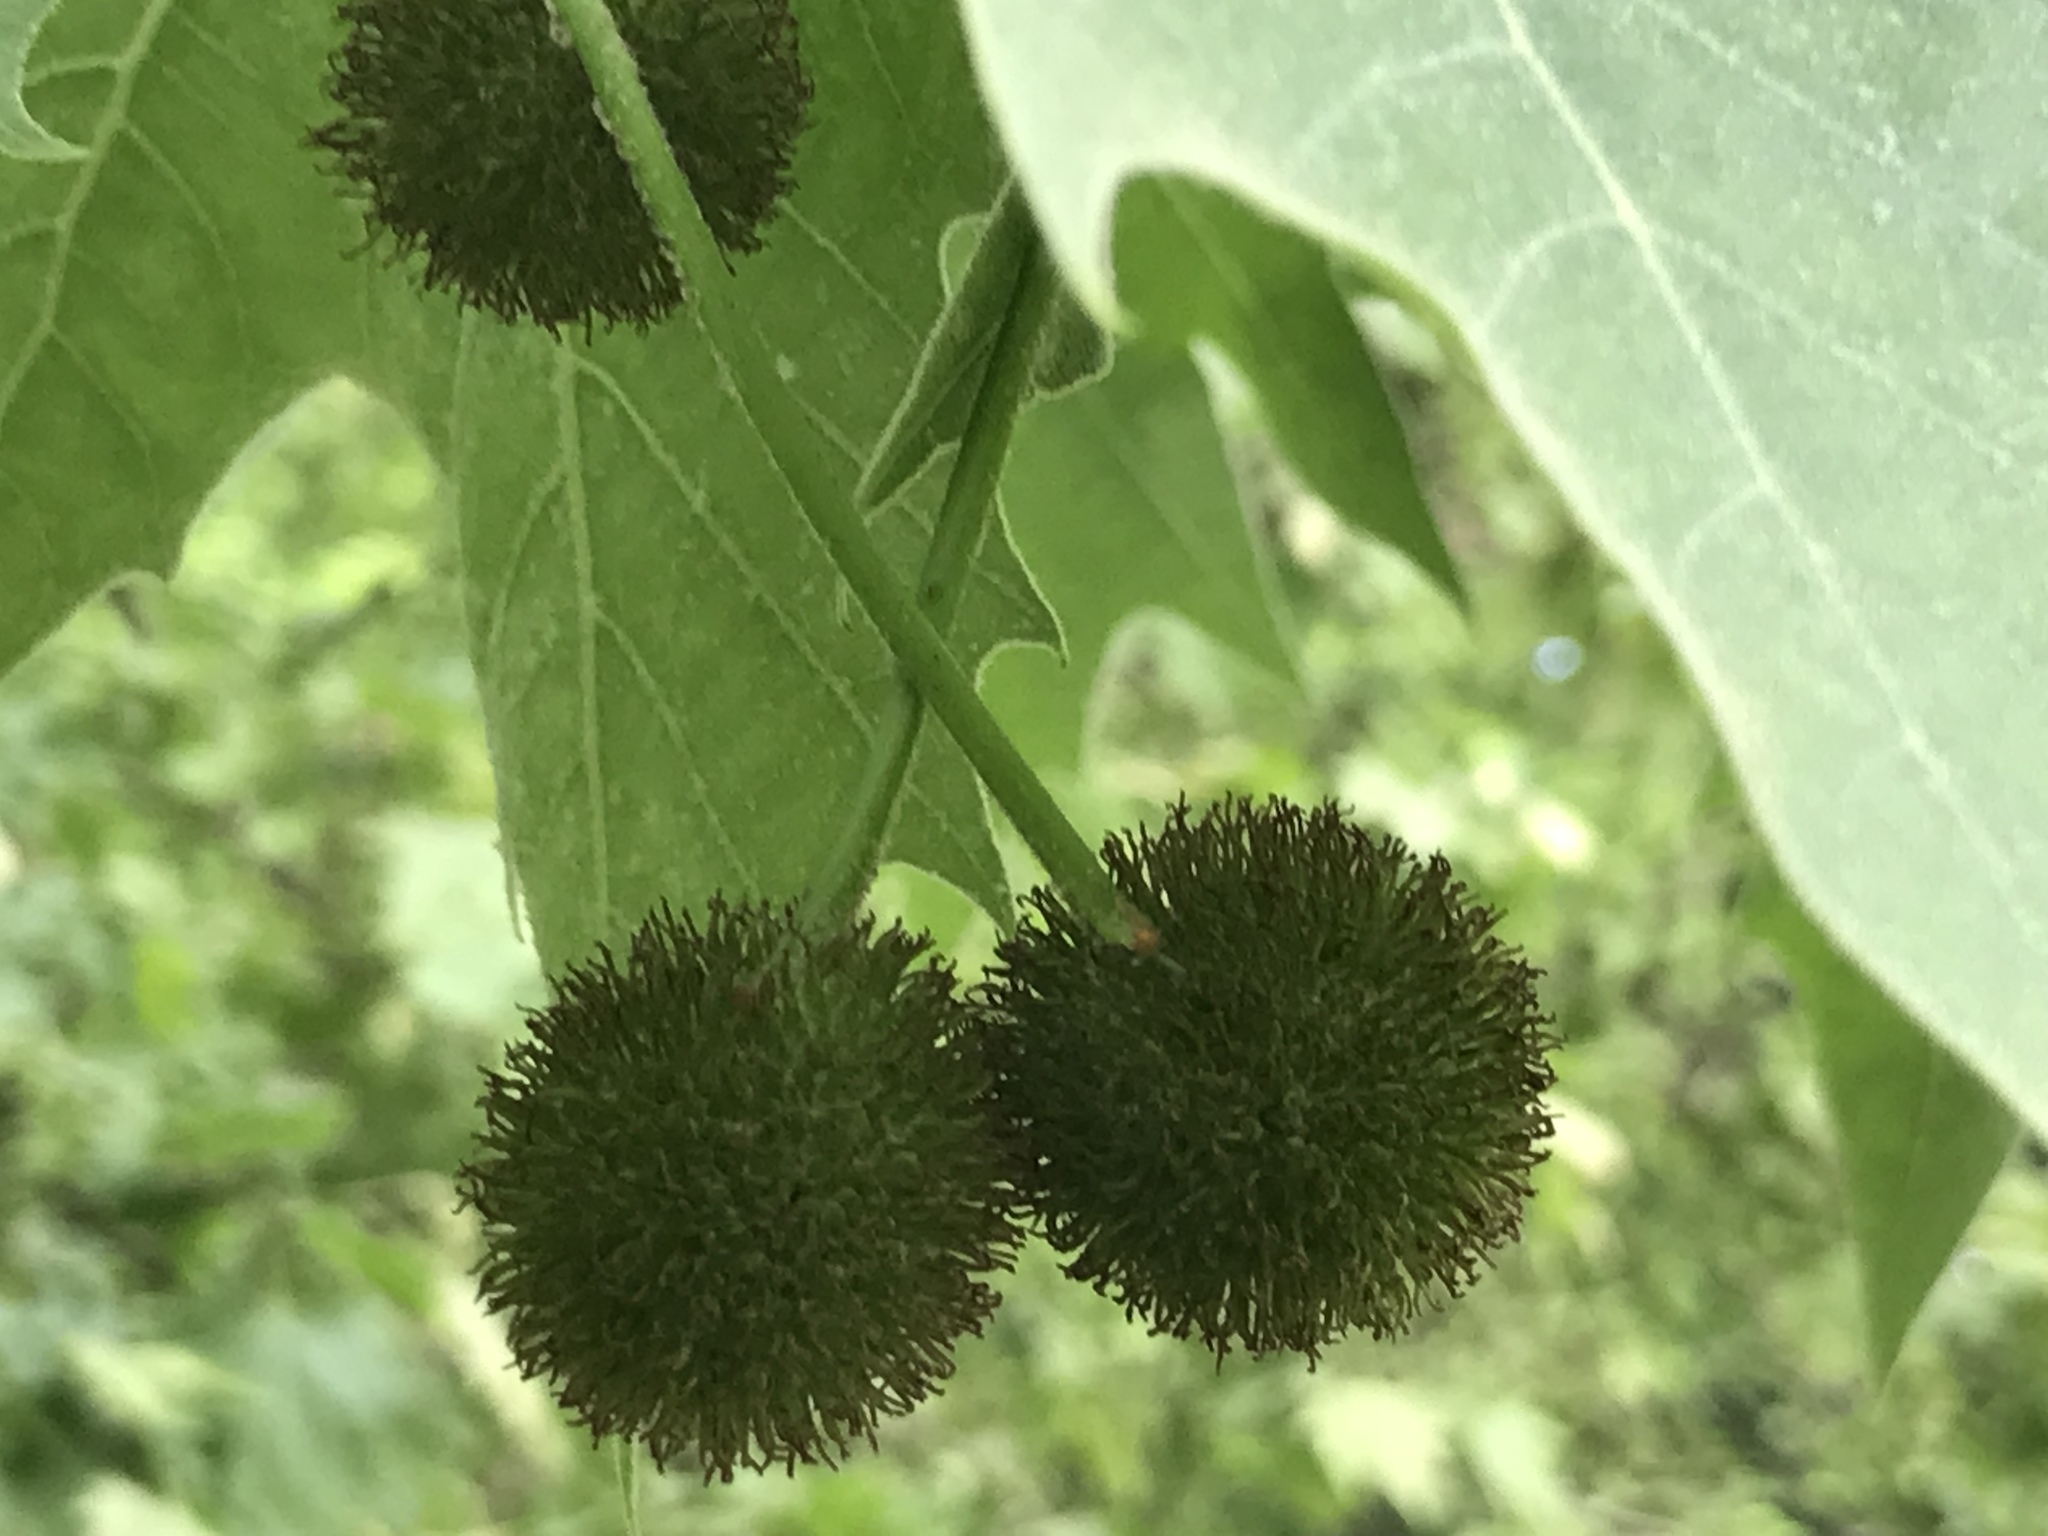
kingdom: Plantae
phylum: Tracheophyta
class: Magnoliopsida
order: Proteales
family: Platanaceae
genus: Platanus
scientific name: Platanus occidentalis
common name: American sycamore
